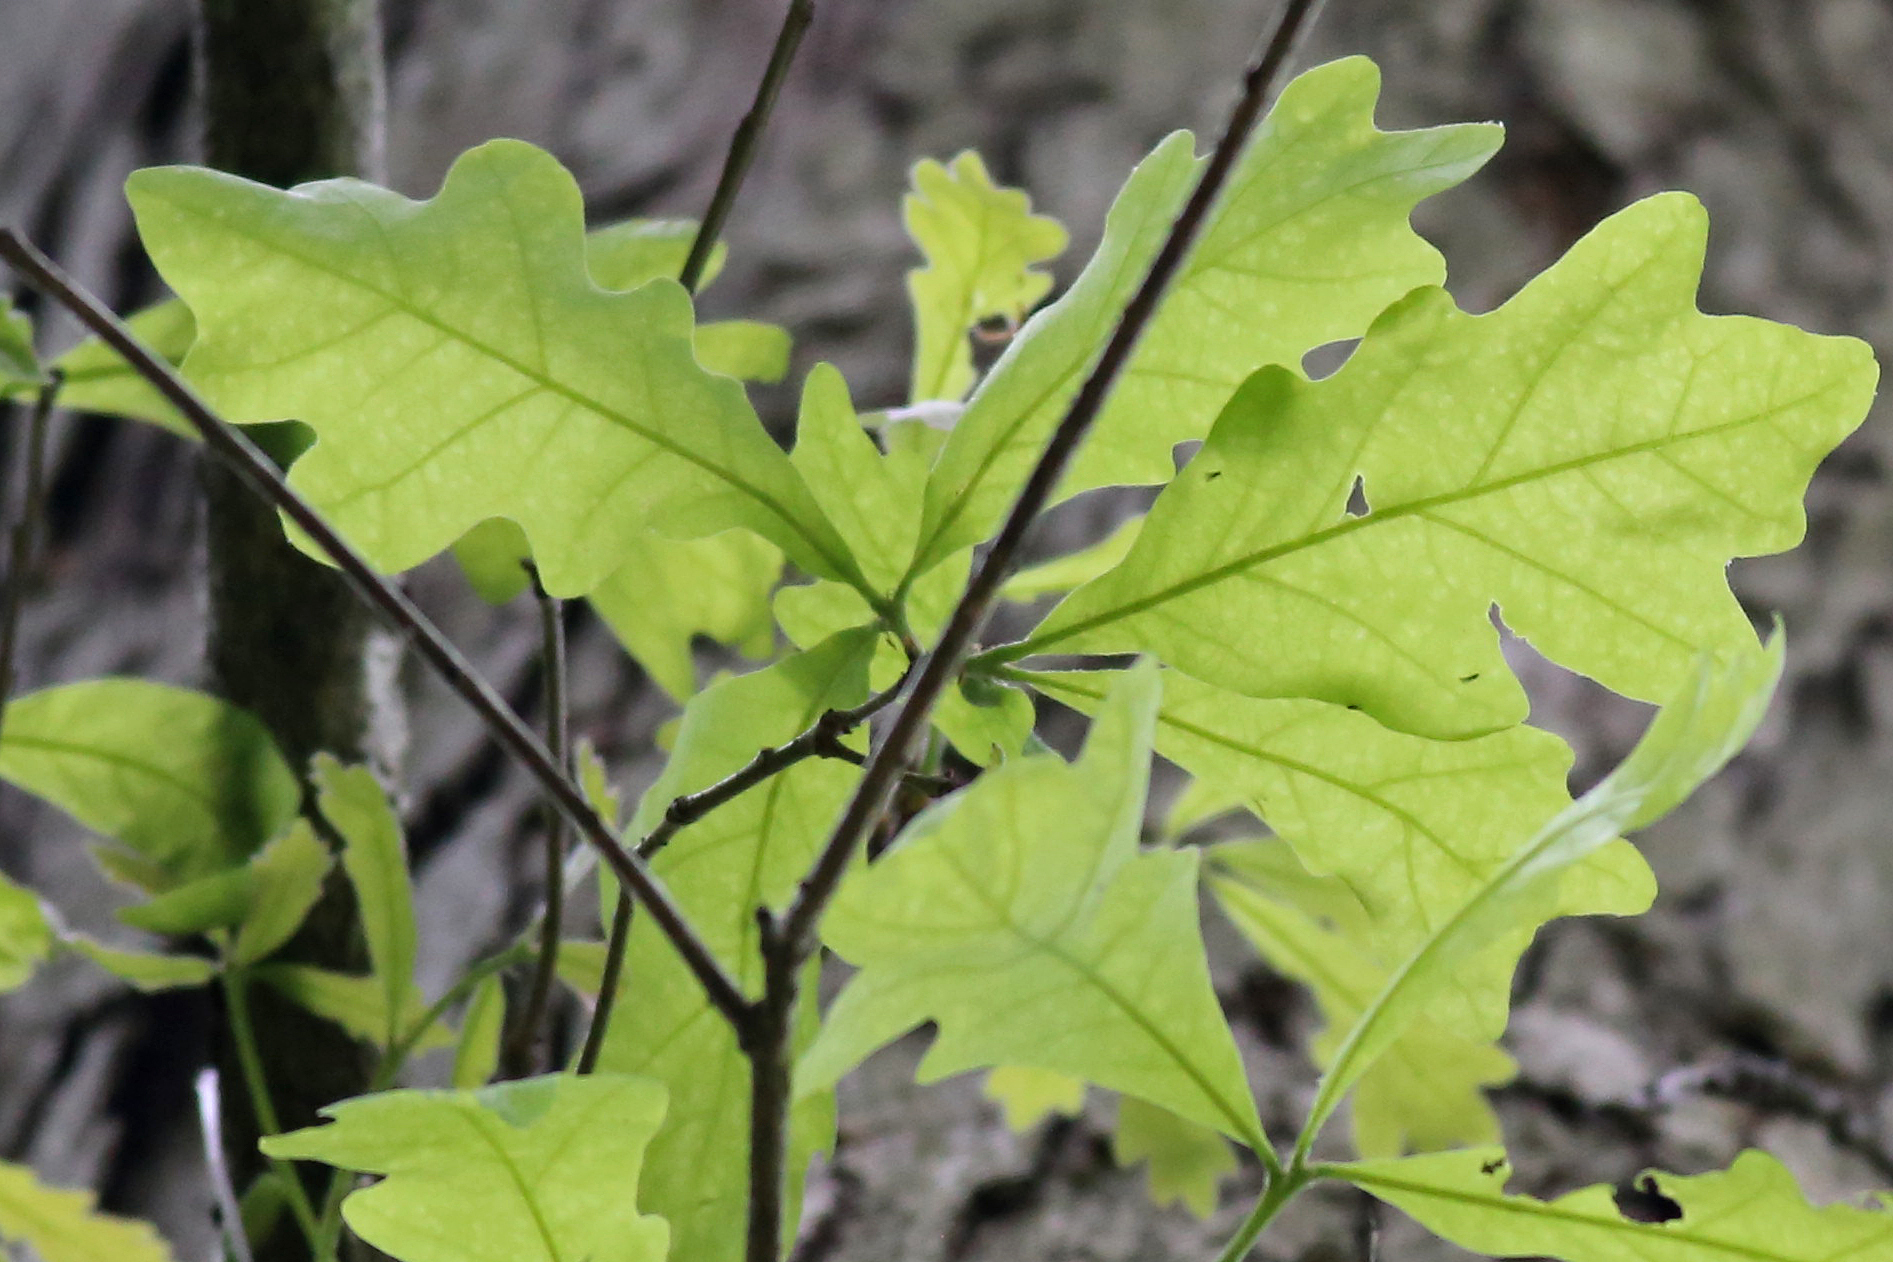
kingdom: Plantae
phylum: Tracheophyta
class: Magnoliopsida
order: Fagales
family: Fagaceae
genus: Quercus
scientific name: Quercus alba
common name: White oak
